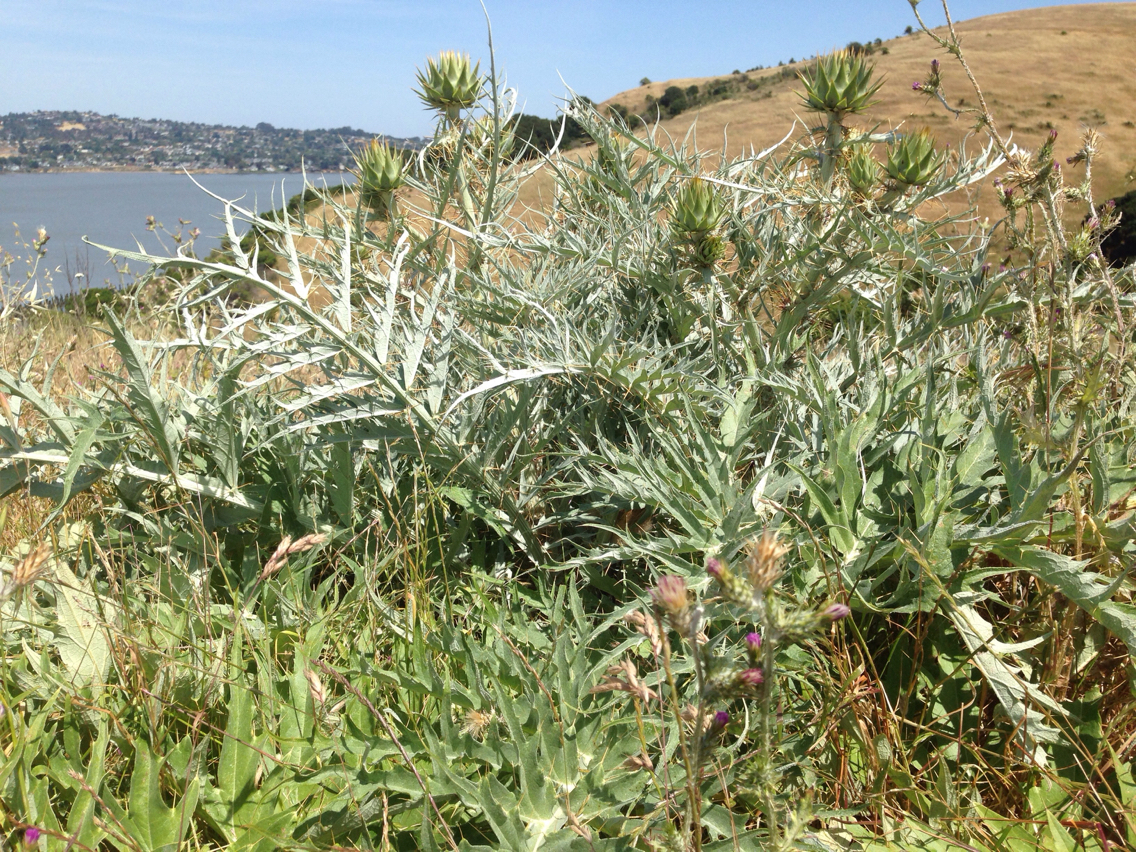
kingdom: Plantae
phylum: Tracheophyta
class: Magnoliopsida
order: Asterales
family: Asteraceae
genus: Cynara
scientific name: Cynara cardunculus
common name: Globe artichoke
